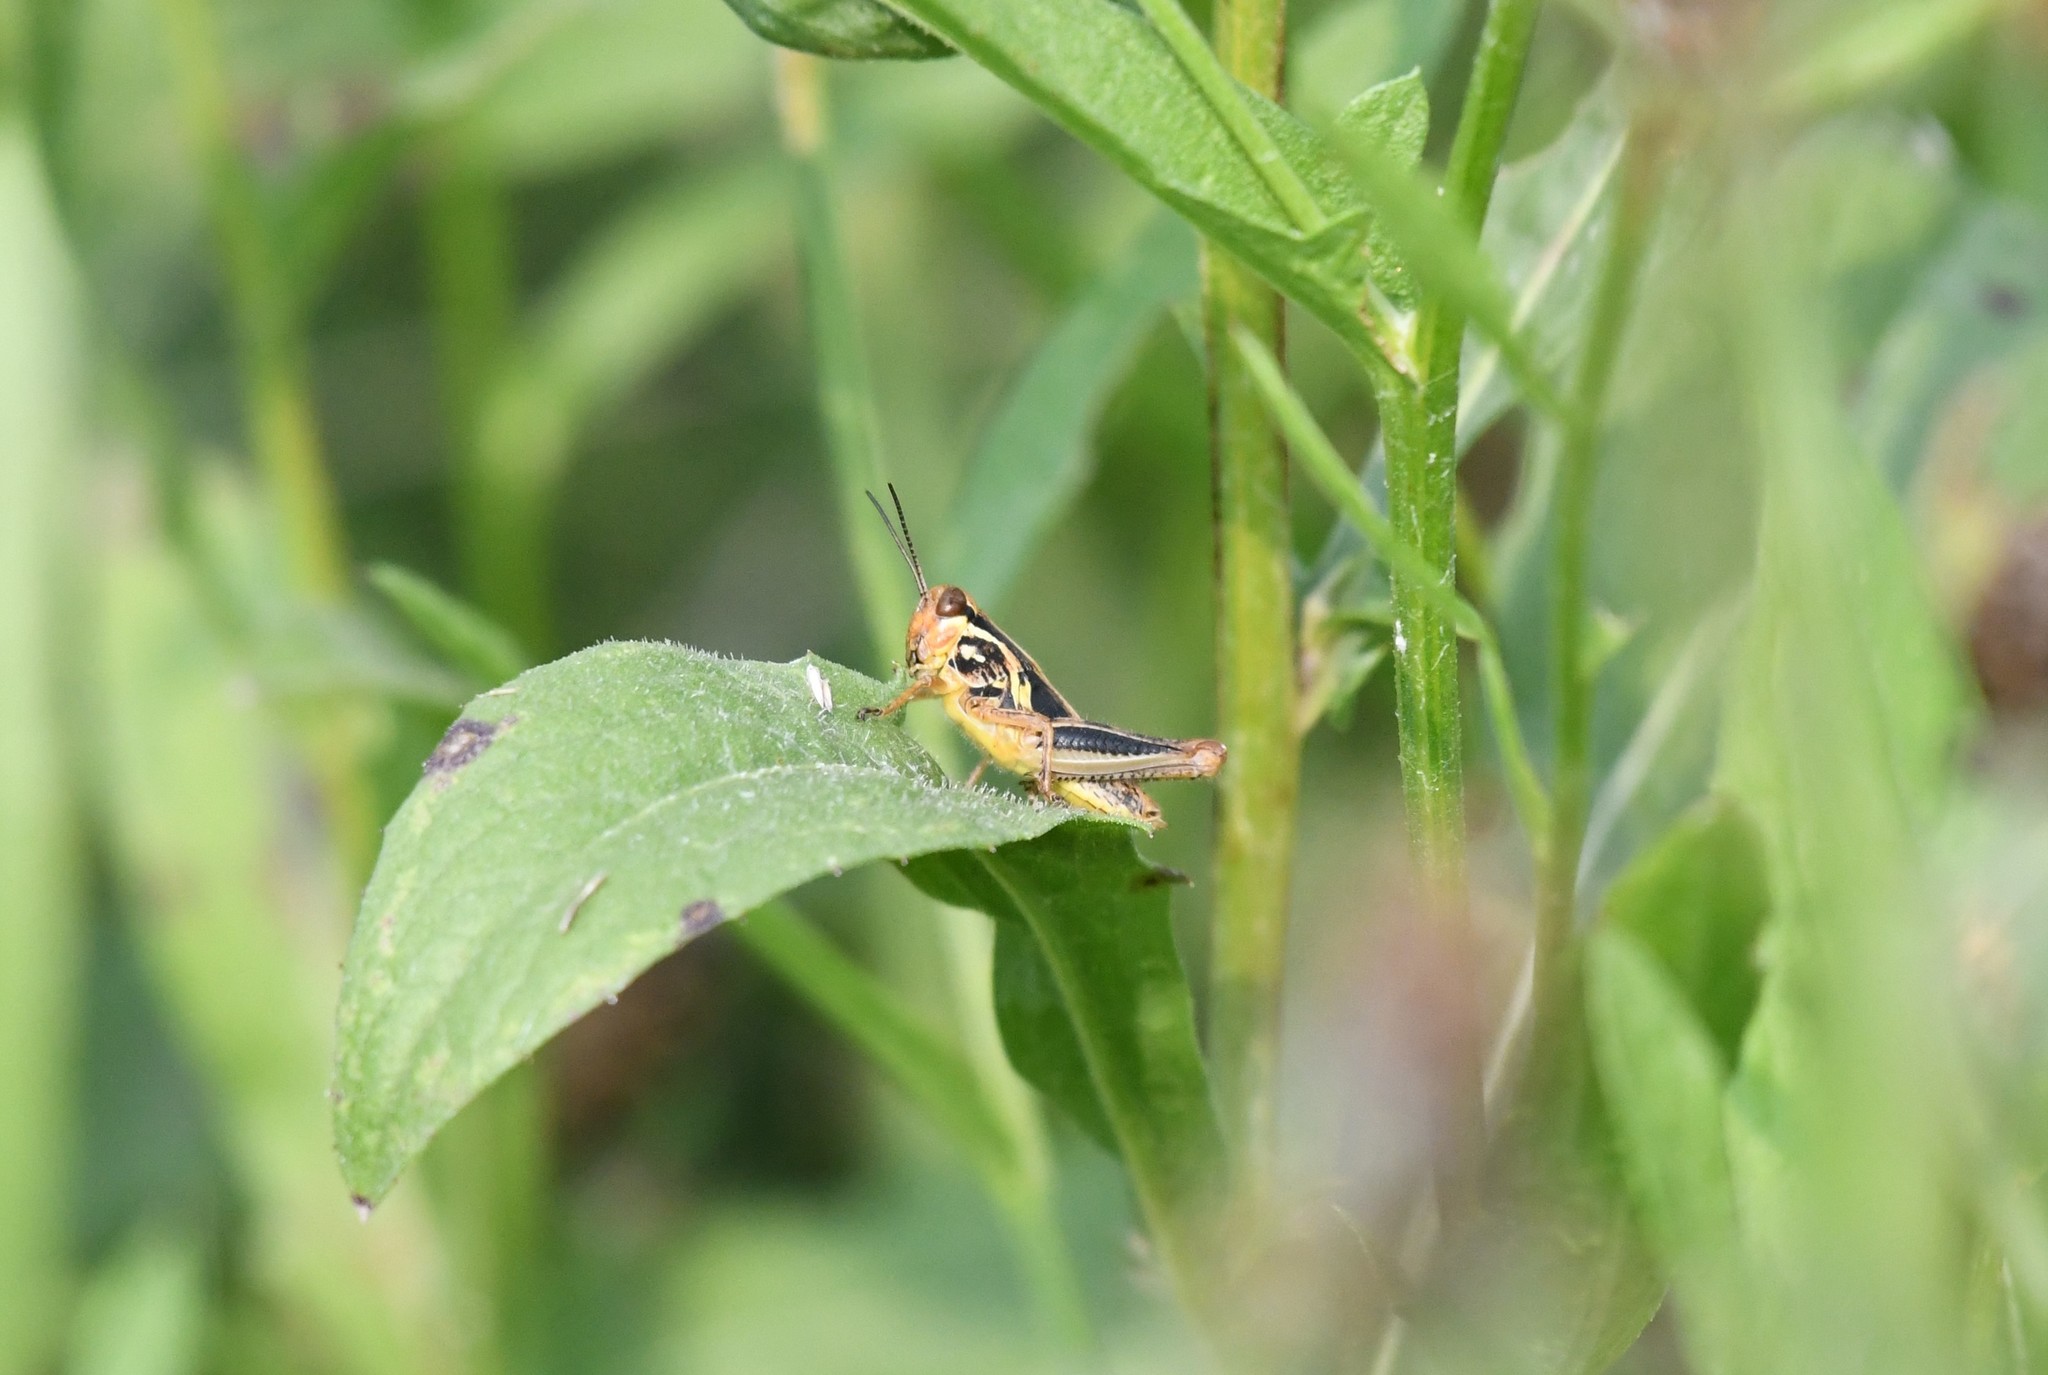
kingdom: Animalia
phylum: Arthropoda
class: Insecta
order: Orthoptera
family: Acrididae
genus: Melanoplus
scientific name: Melanoplus femurrubrum
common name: Red-legged grasshopper
